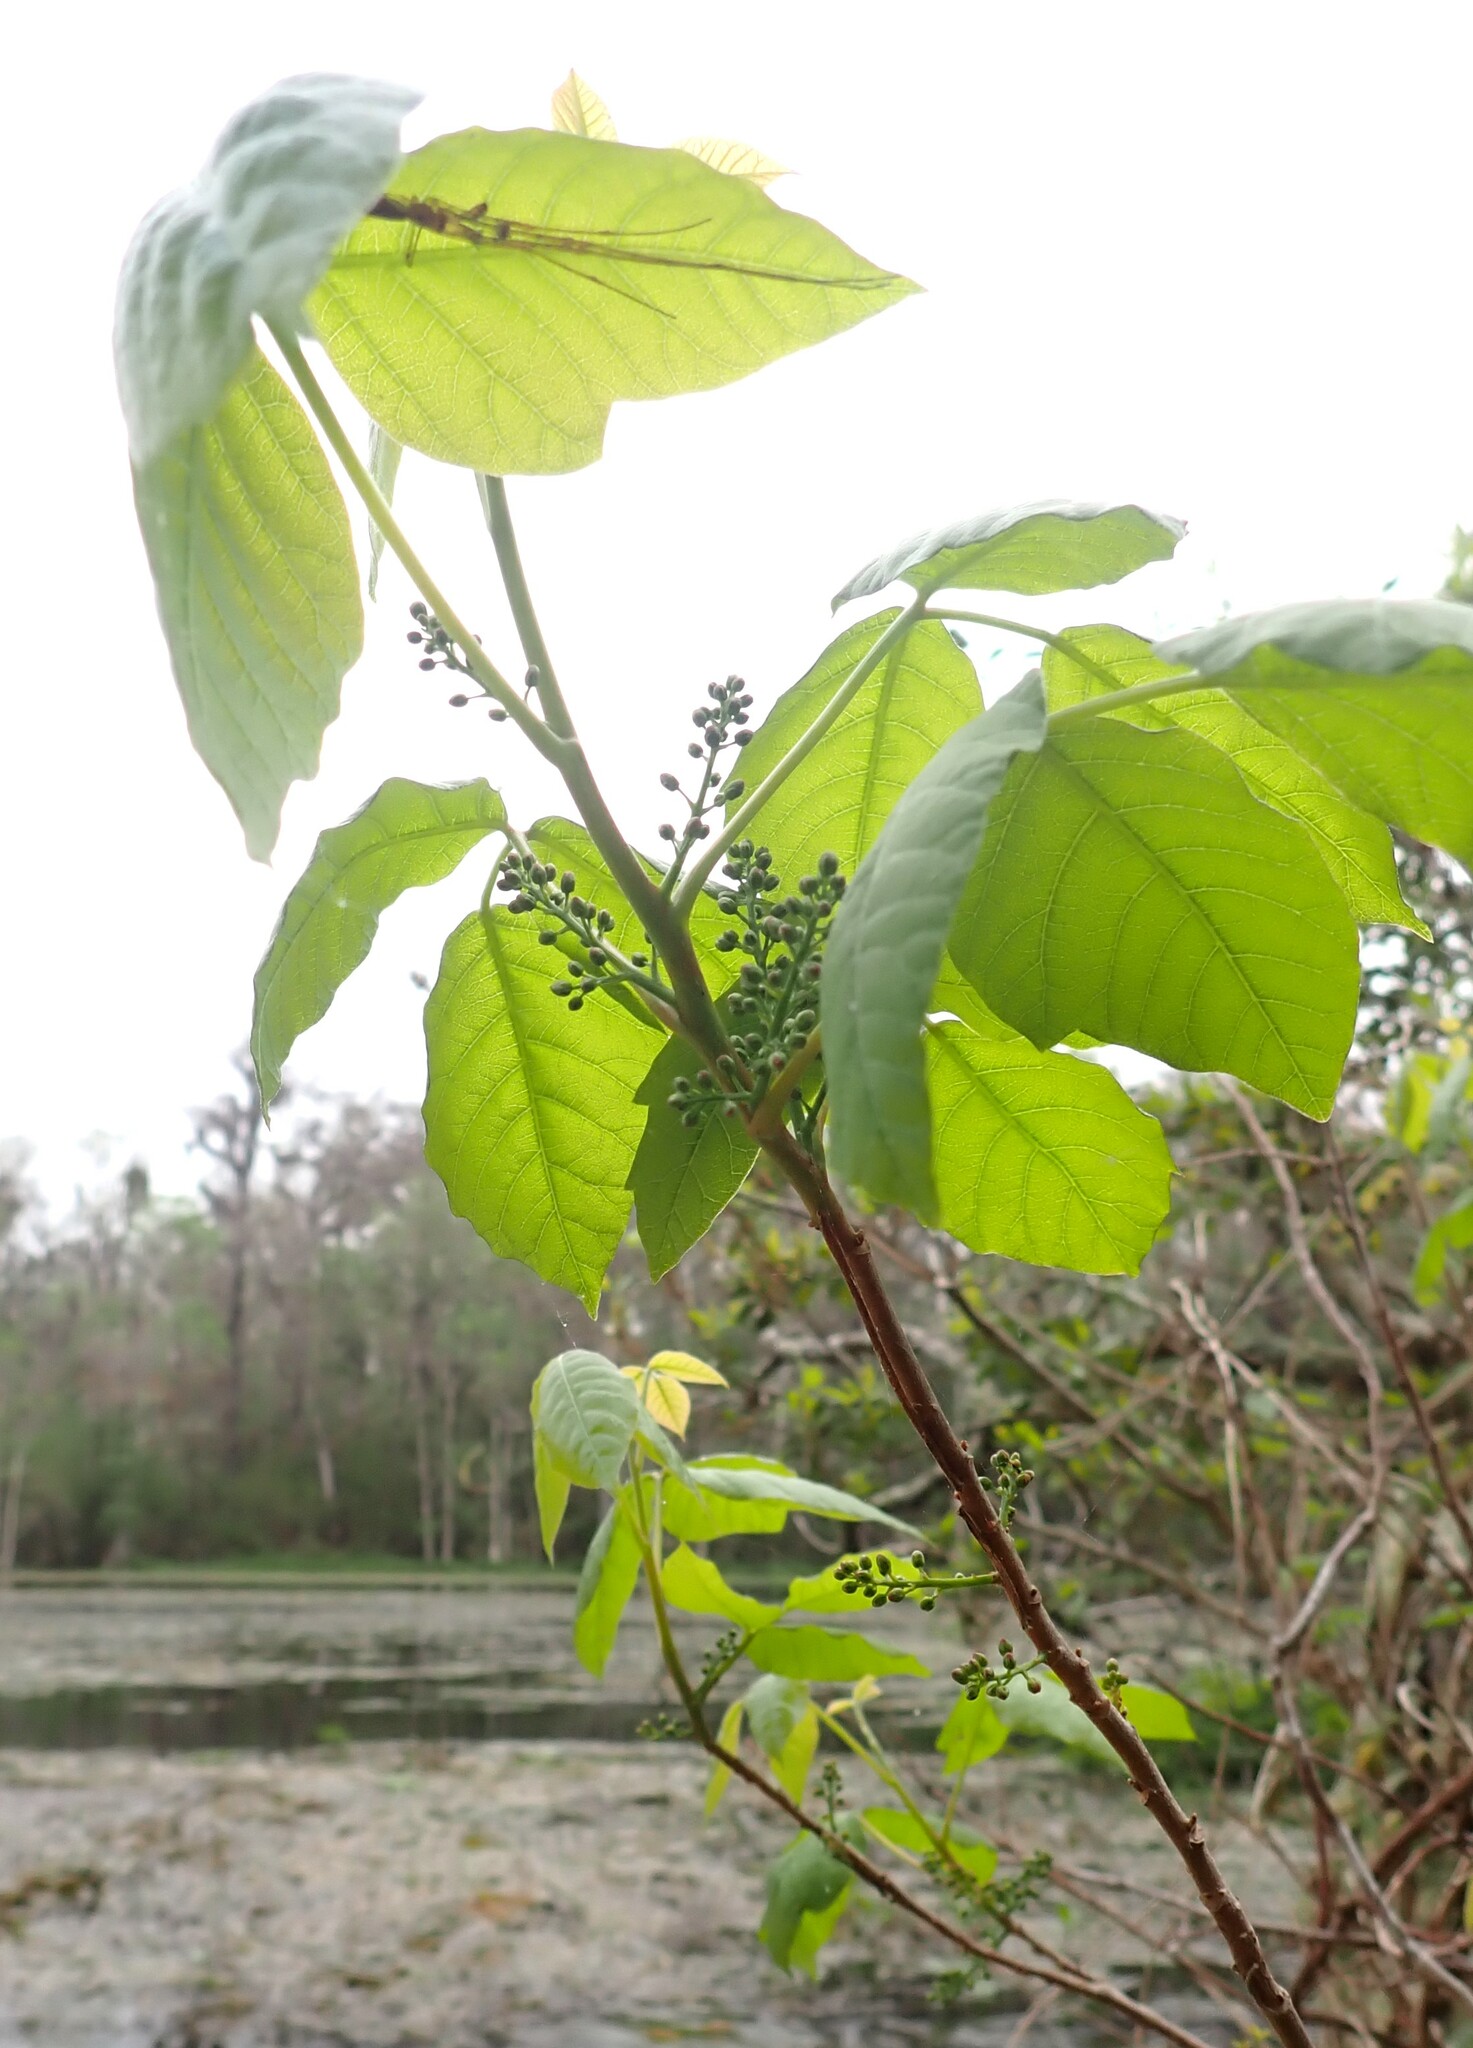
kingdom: Plantae
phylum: Tracheophyta
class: Magnoliopsida
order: Sapindales
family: Anacardiaceae
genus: Toxicodendron
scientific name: Toxicodendron radicans
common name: Poison ivy
